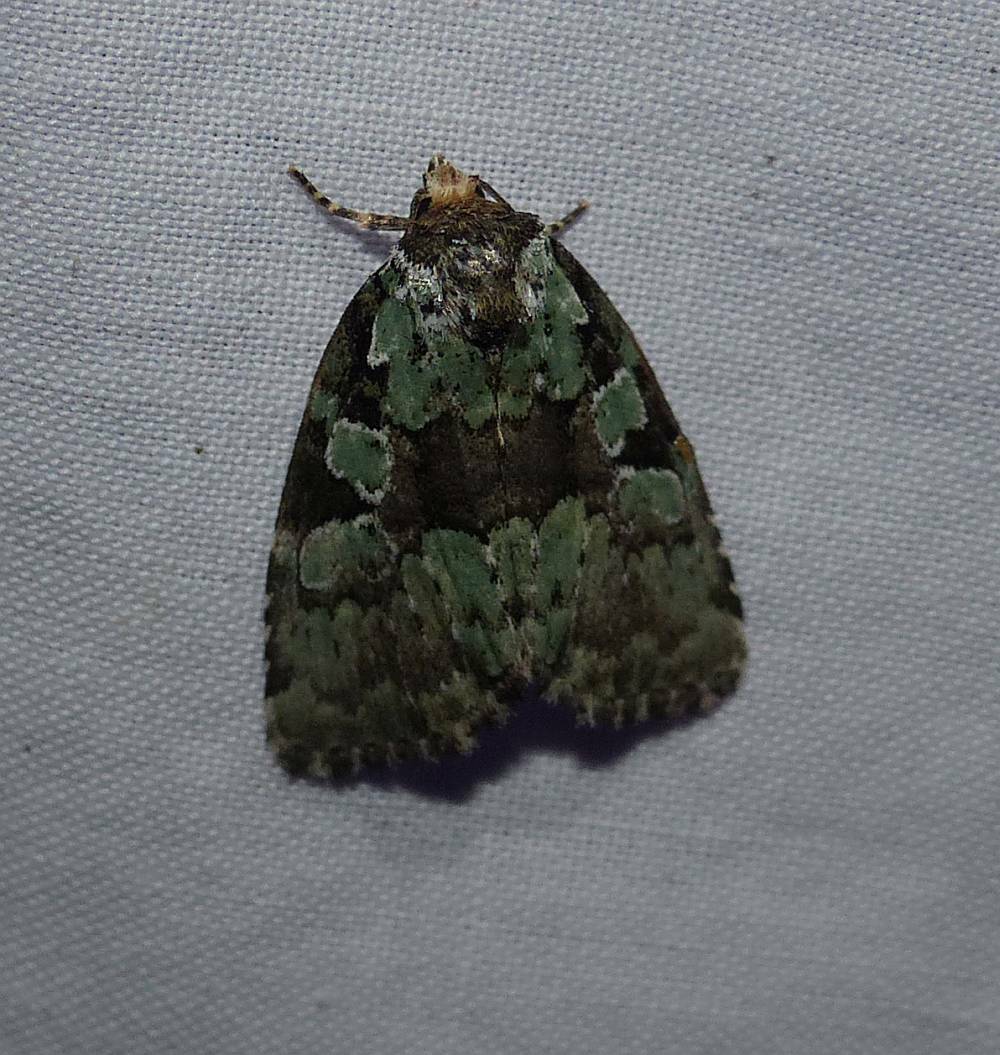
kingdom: Animalia
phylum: Arthropoda
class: Insecta
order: Lepidoptera
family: Noctuidae
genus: Leuconycta
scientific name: Leuconycta lepidula
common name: Marbled-green leuconycta moth
